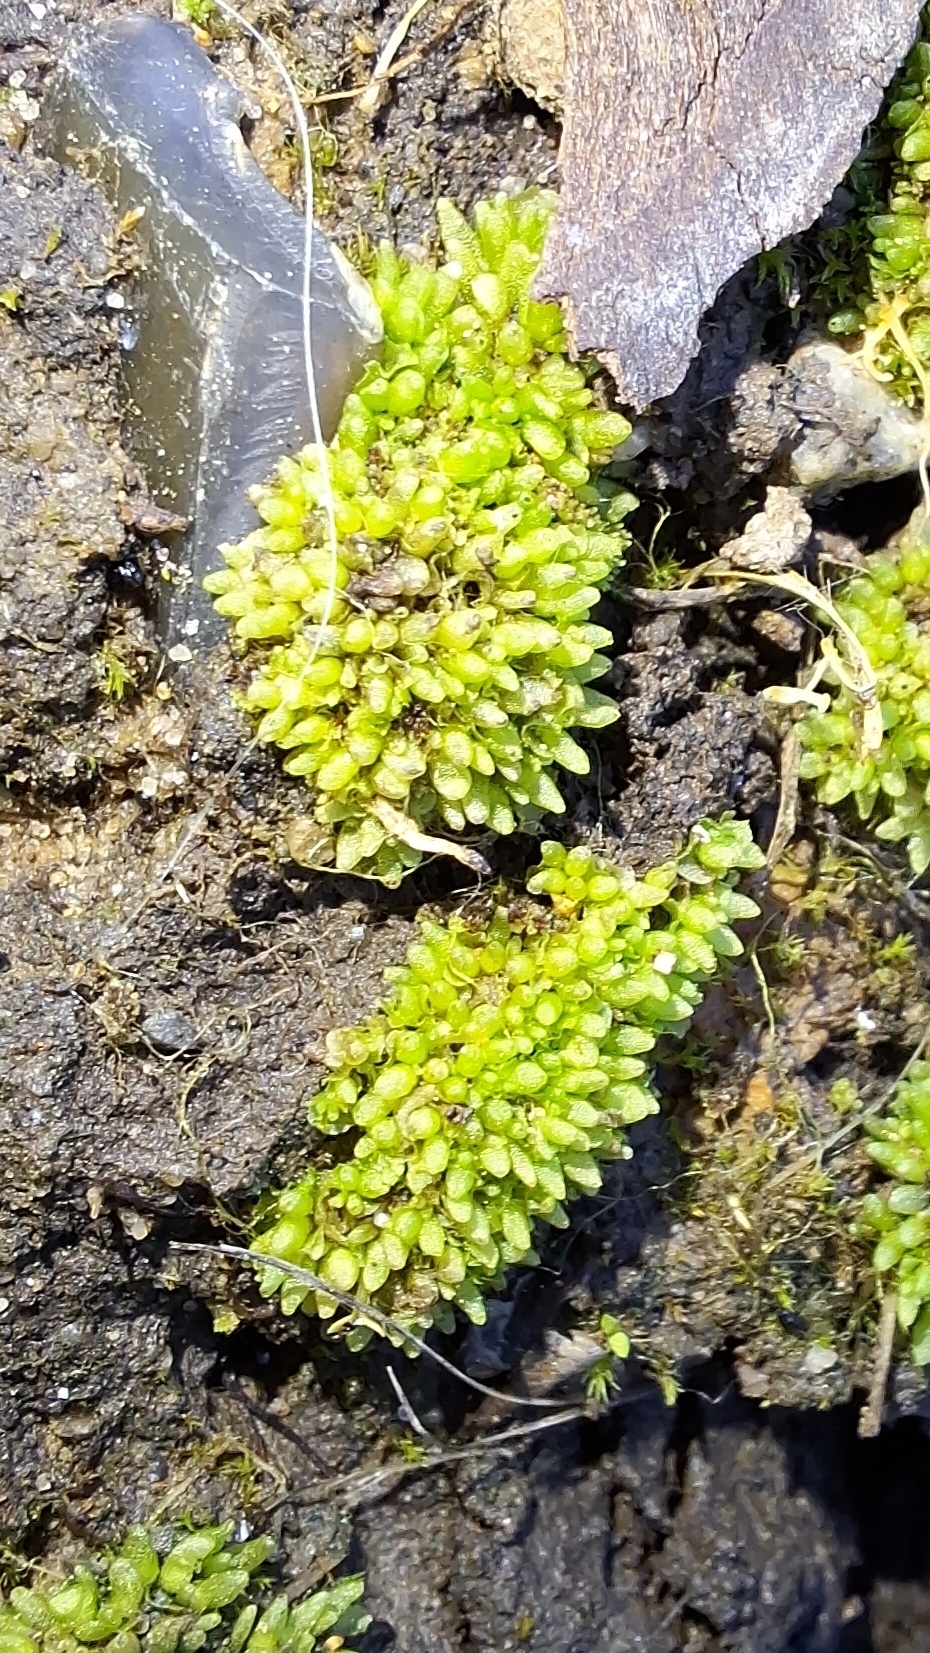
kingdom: Plantae
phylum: Marchantiophyta
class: Marchantiopsida
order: Sphaerocarpales
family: Sphaerocarpaceae
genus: Sphaerocarpos
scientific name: Sphaerocarpos texanus
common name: Texas balloonwort
